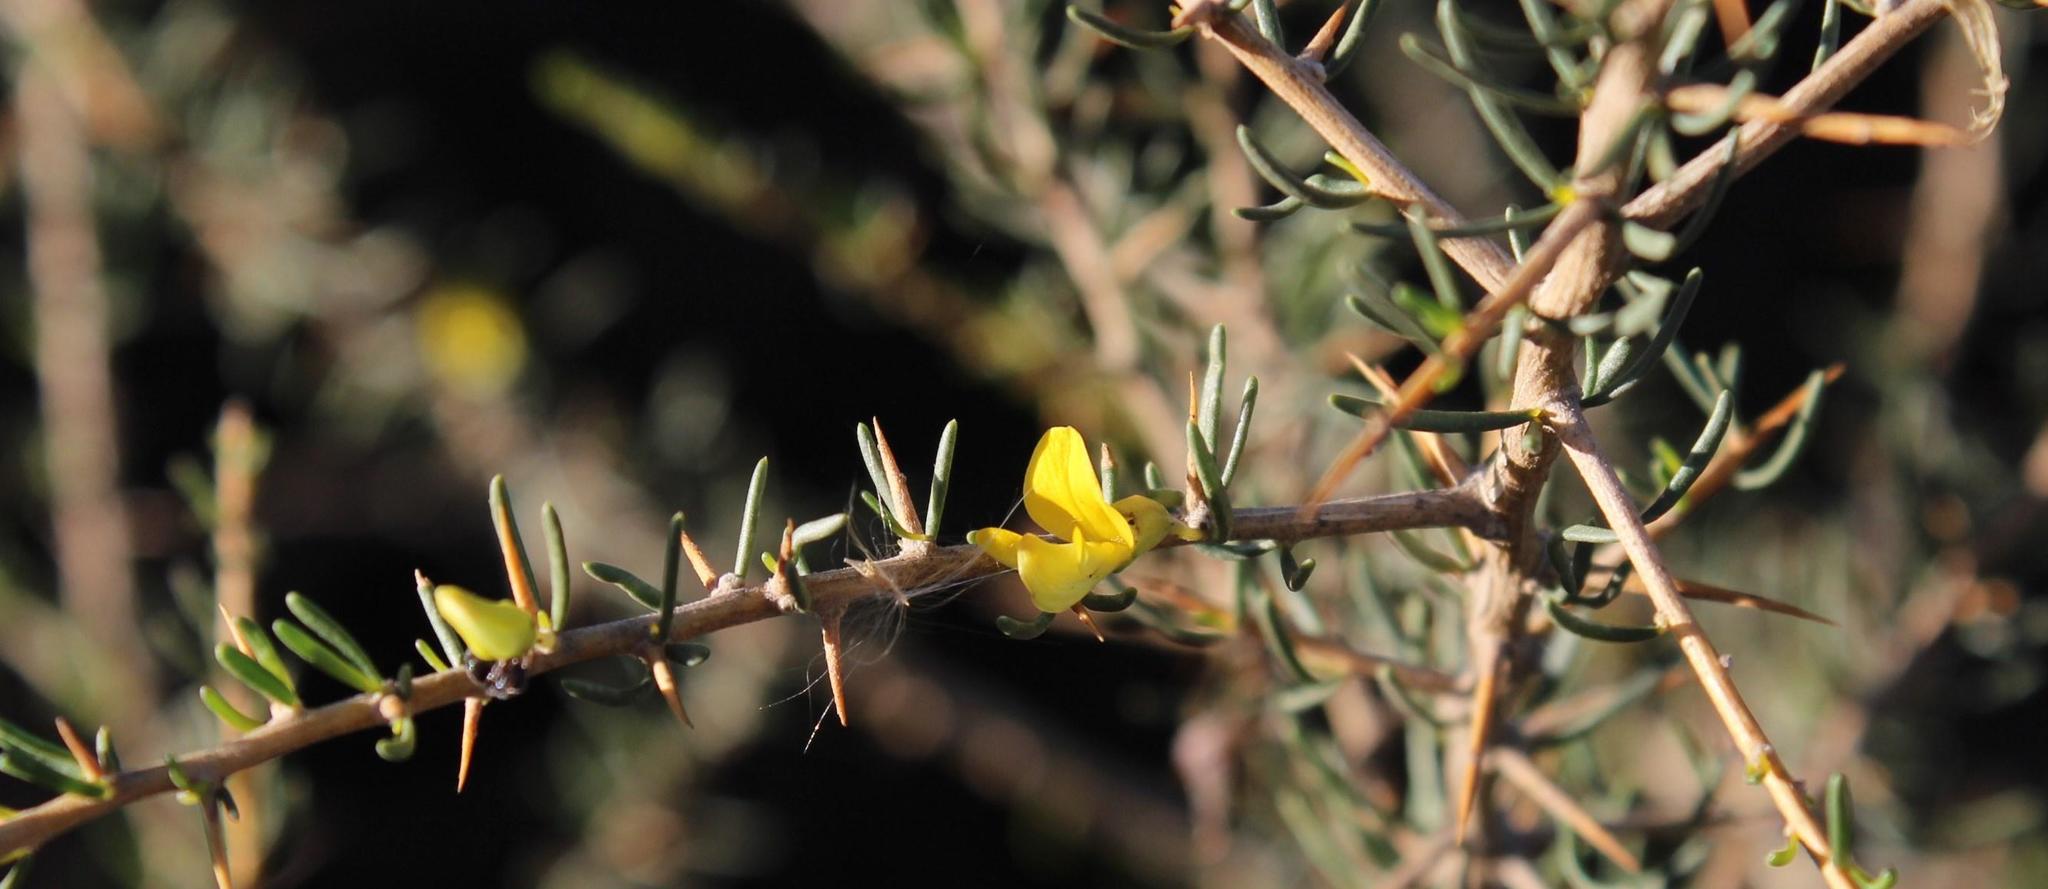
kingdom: Plantae
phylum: Tracheophyta
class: Magnoliopsida
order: Fabales
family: Fabaceae
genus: Aspalathus
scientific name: Aspalathus spinosa
